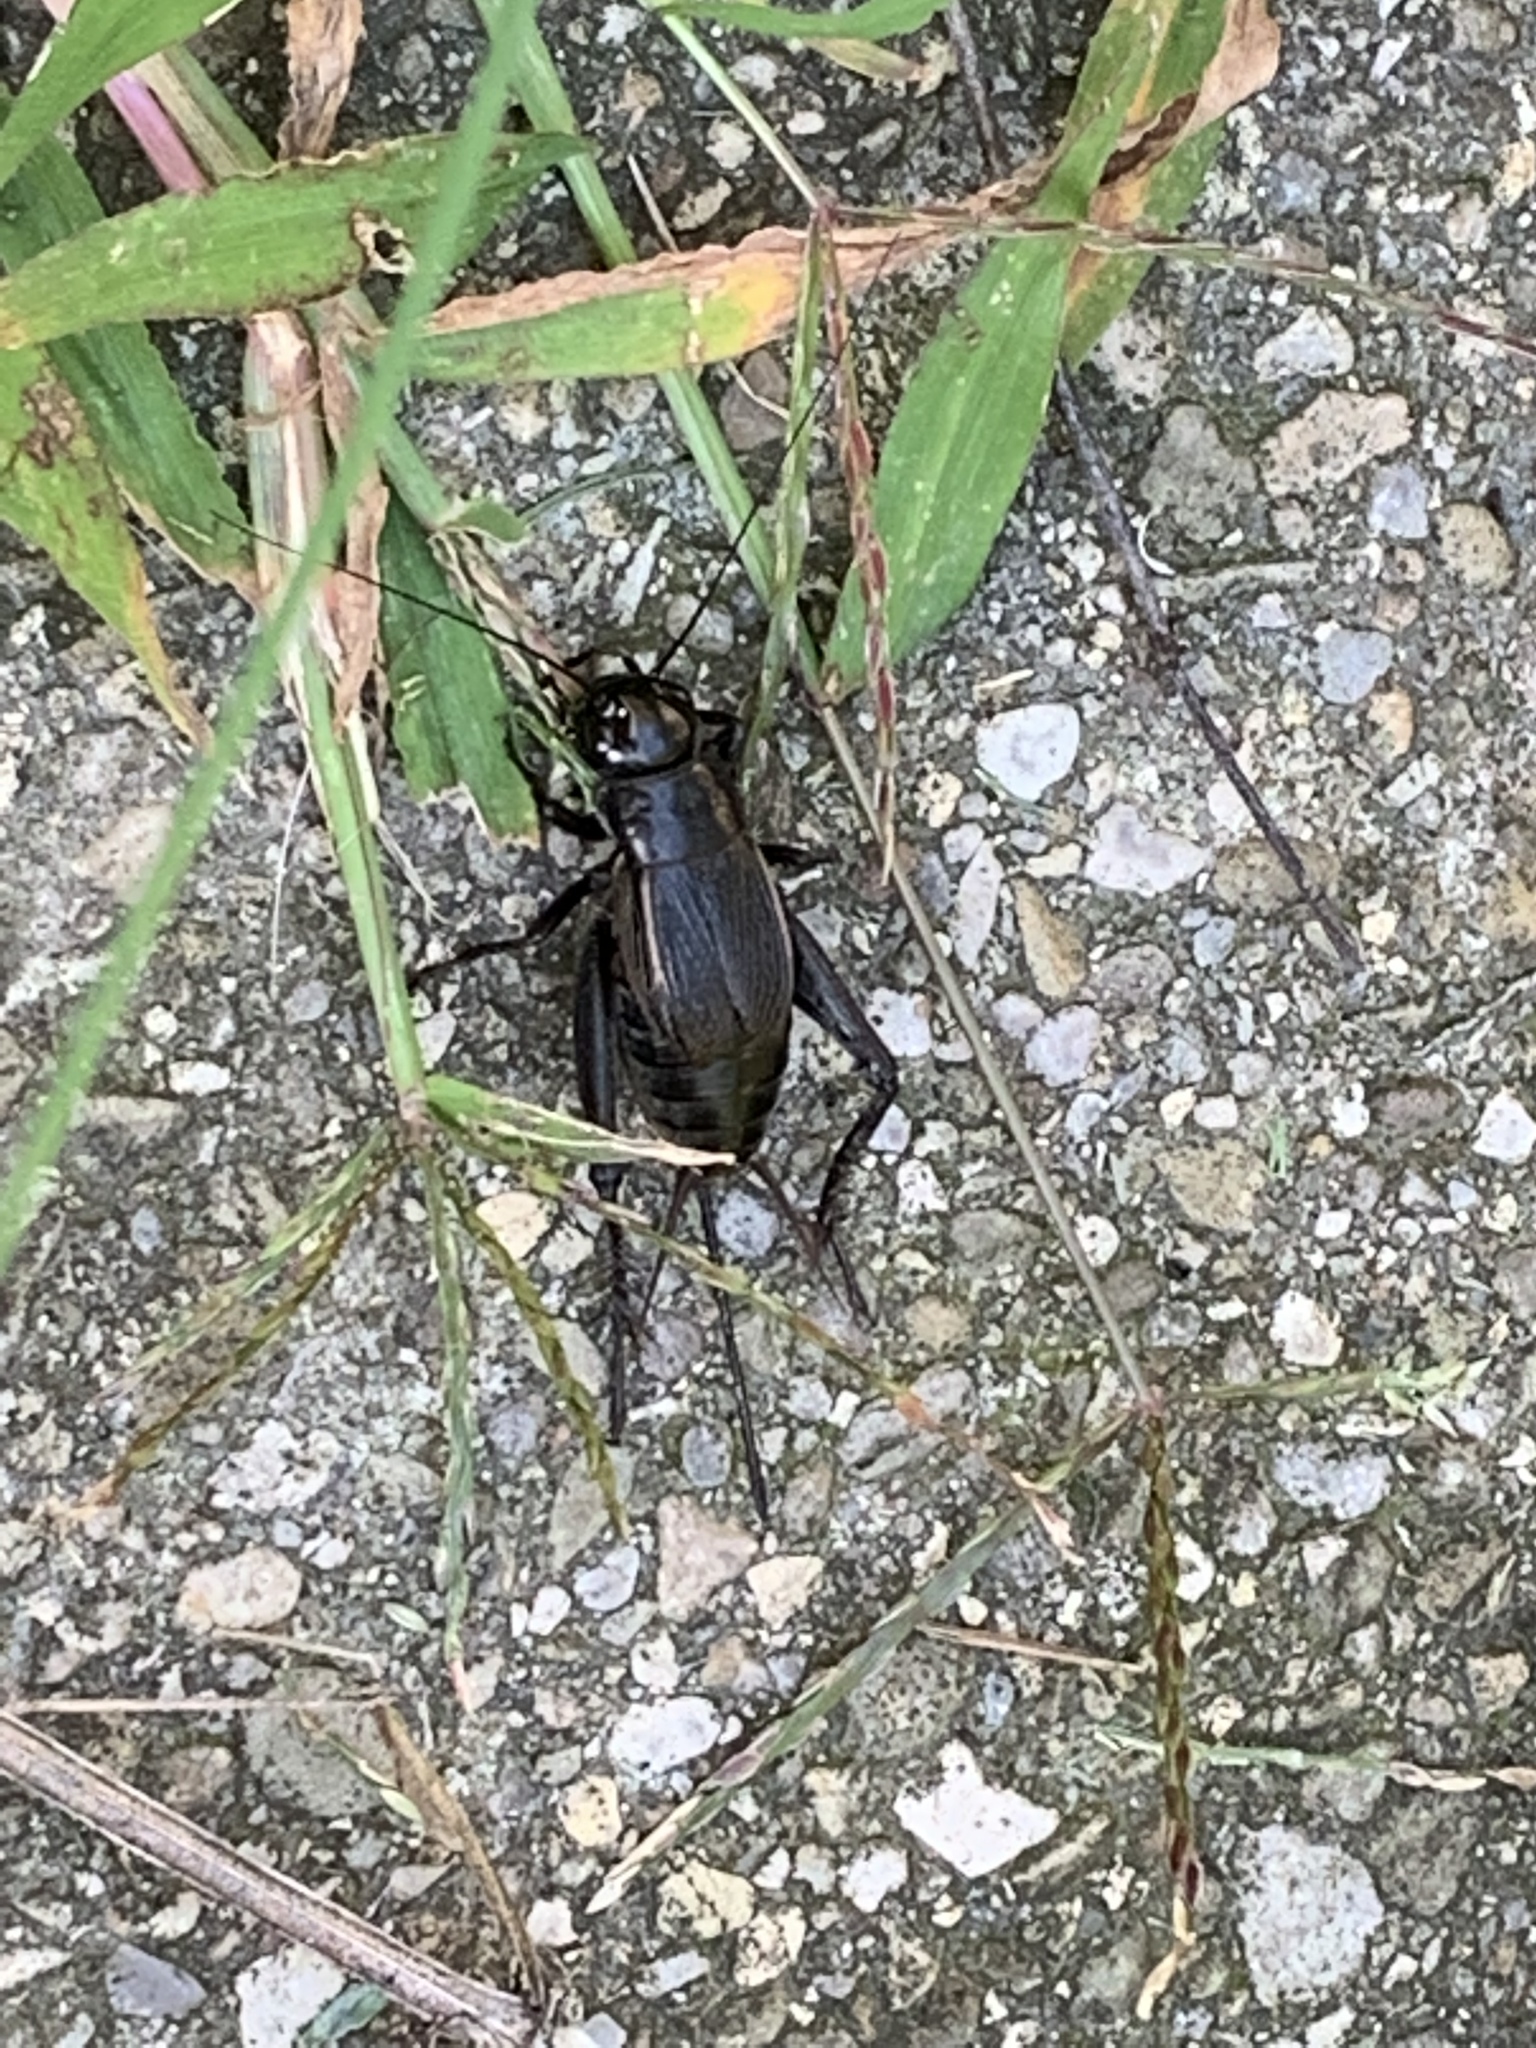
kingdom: Animalia
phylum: Arthropoda
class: Insecta
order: Orthoptera
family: Gryllidae
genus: Gryllus
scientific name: Gryllus pennsylvanicus
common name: Fall field cricket
